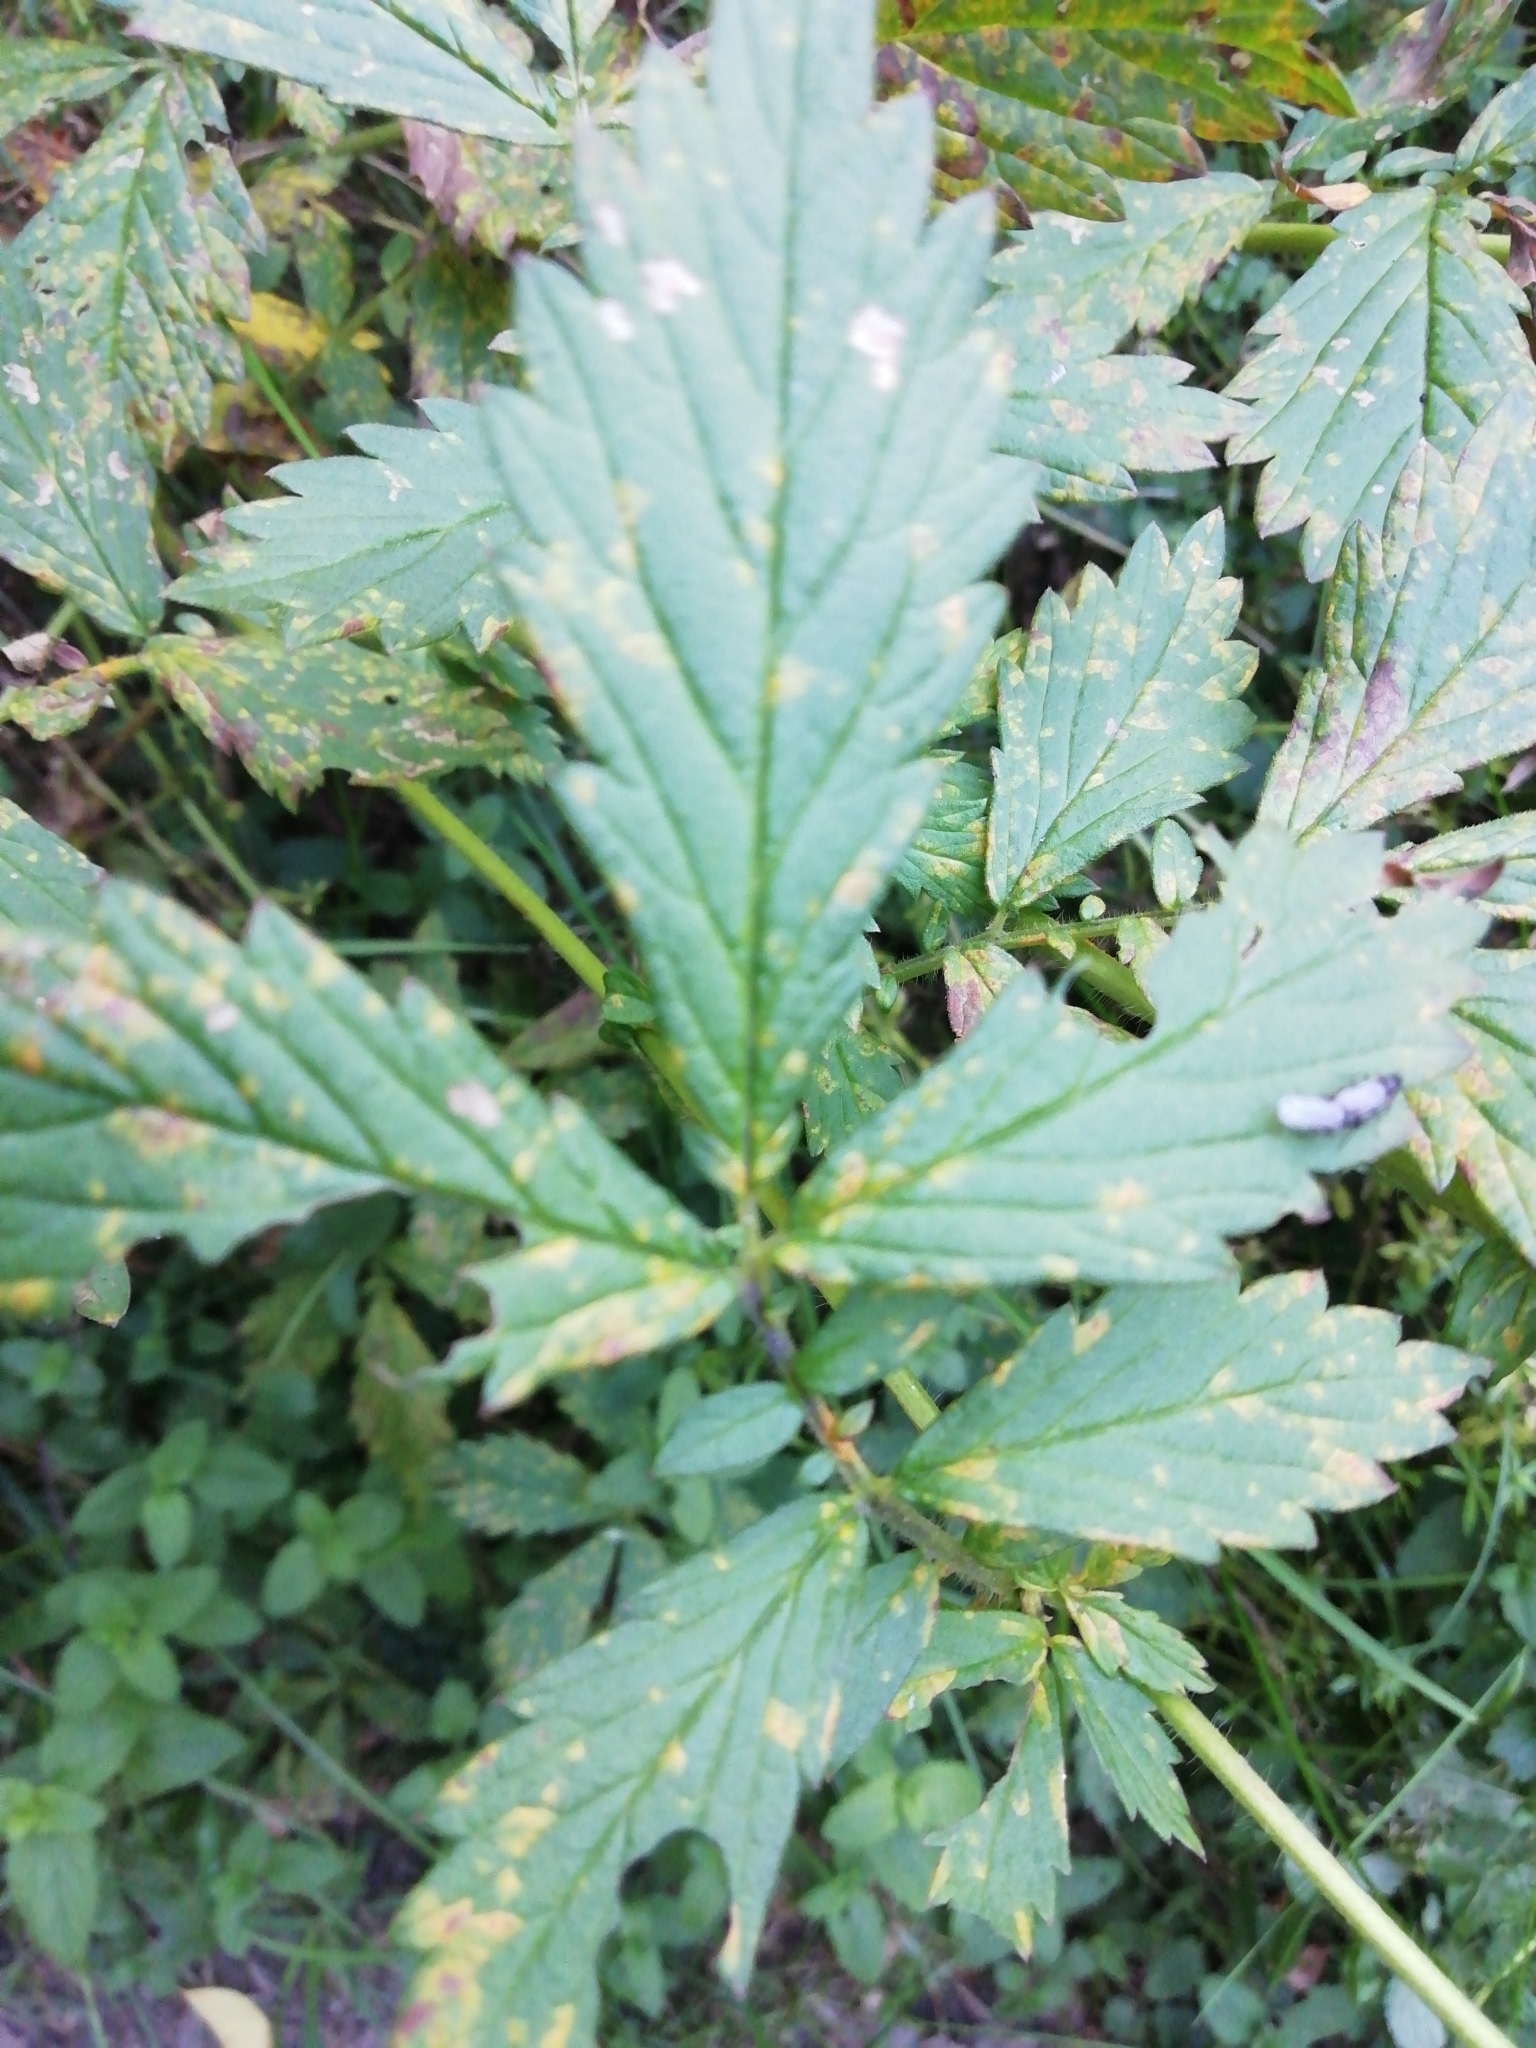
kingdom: Plantae
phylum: Tracheophyta
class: Magnoliopsida
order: Rosales
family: Rosaceae
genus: Agrimonia
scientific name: Agrimonia pilosa
